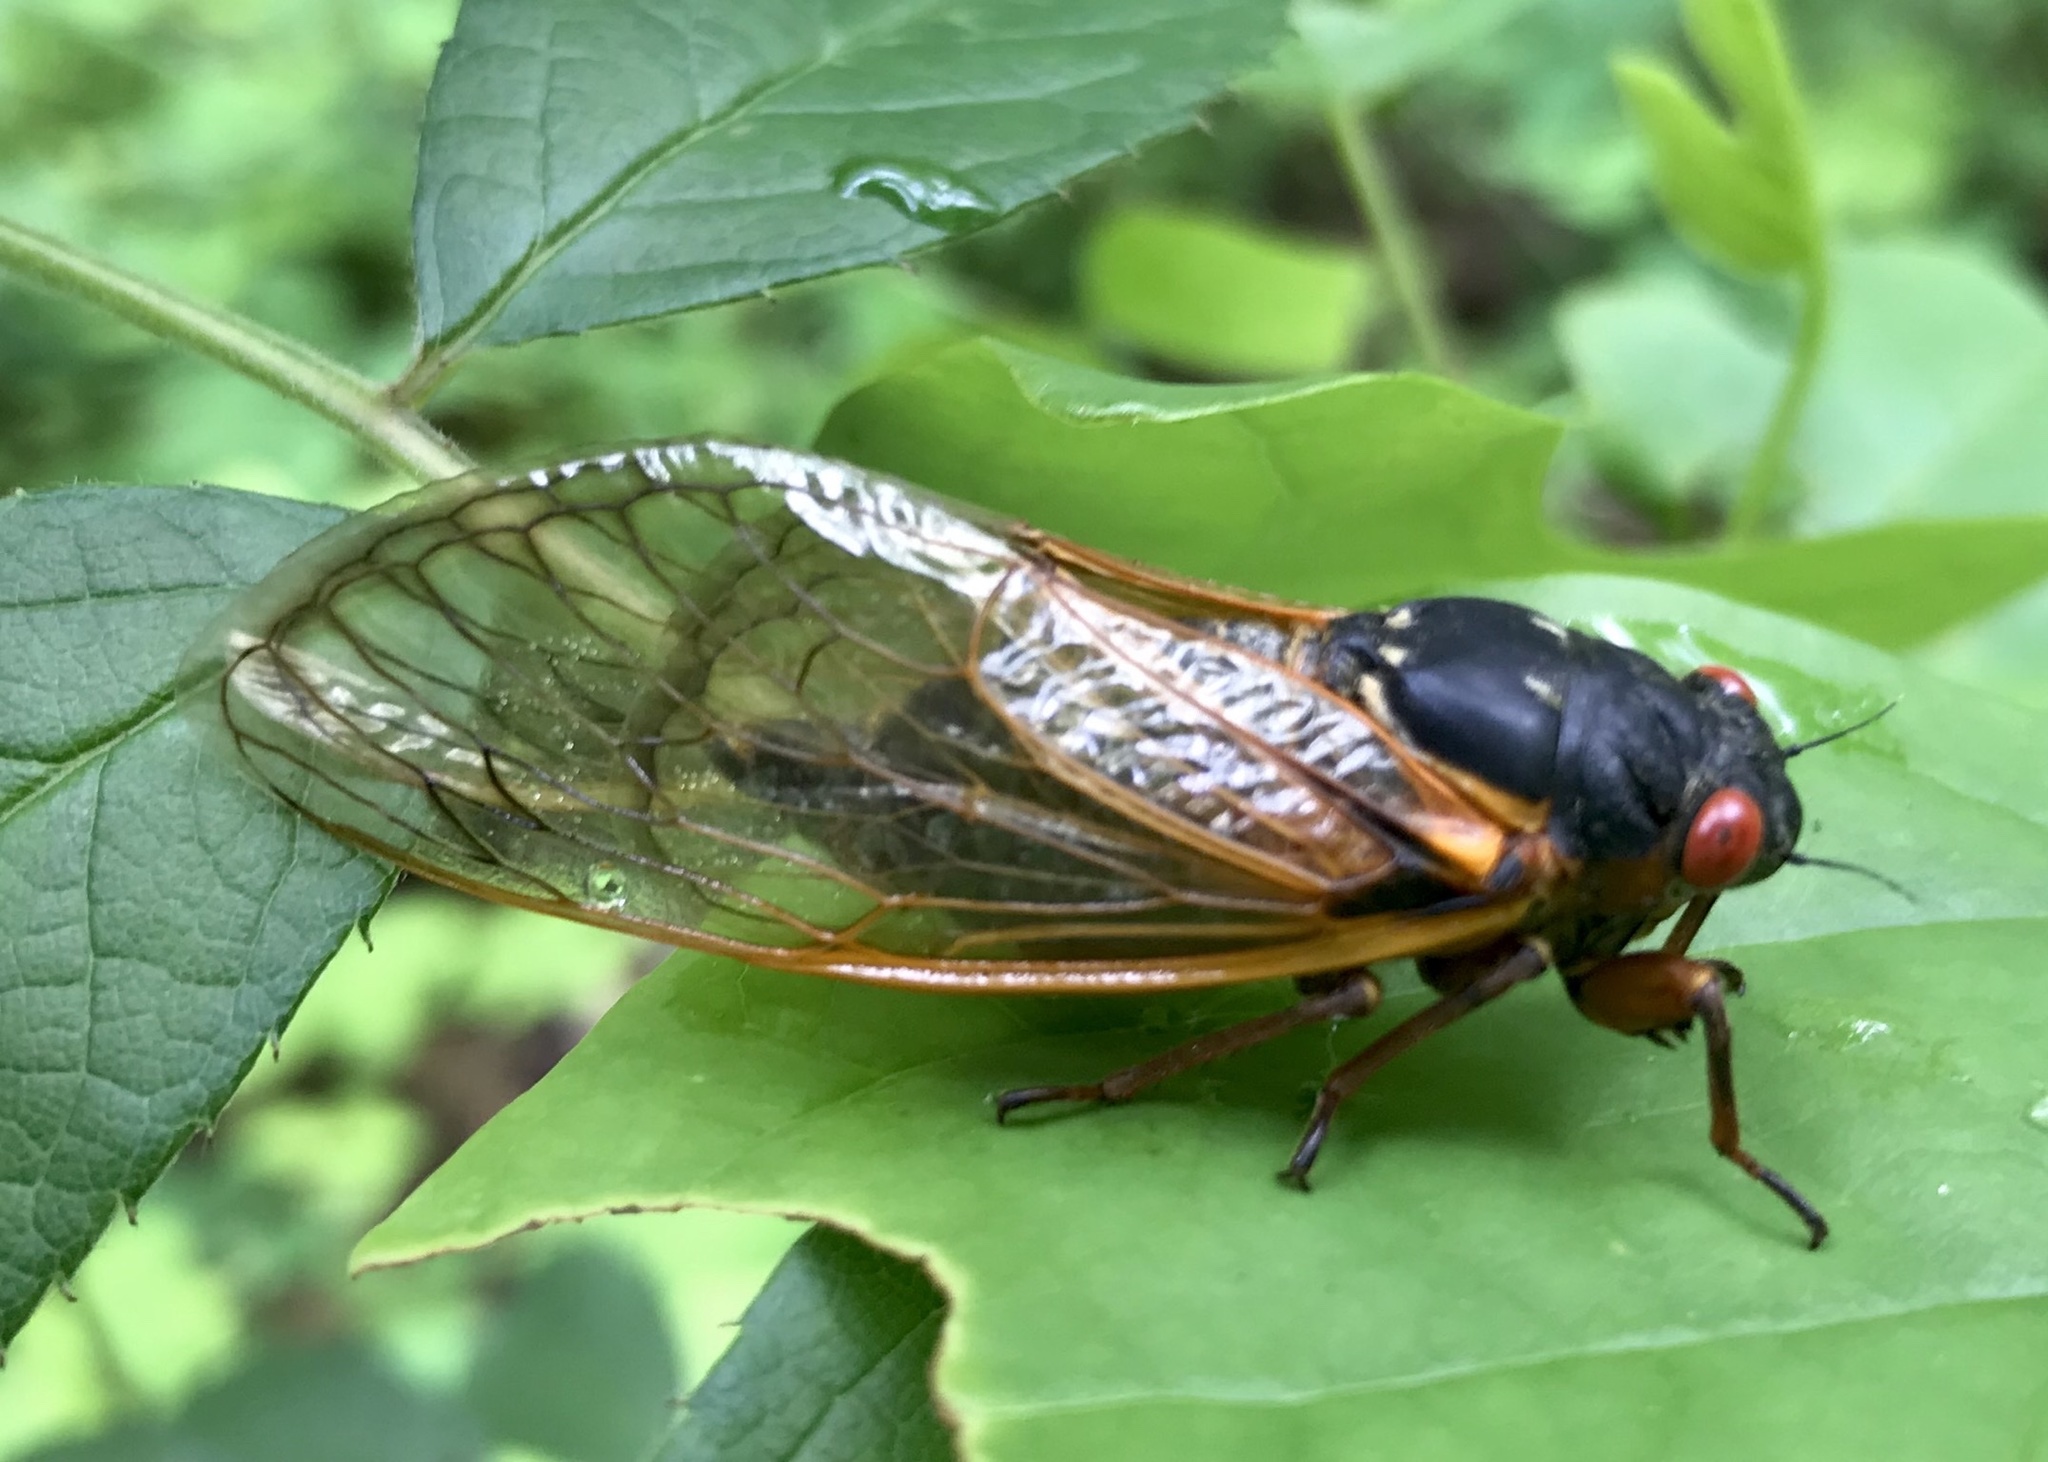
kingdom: Animalia
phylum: Arthropoda
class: Insecta
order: Hemiptera
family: Cicadidae
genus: Magicicada
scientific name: Magicicada septendecim
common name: Periodical cicada
